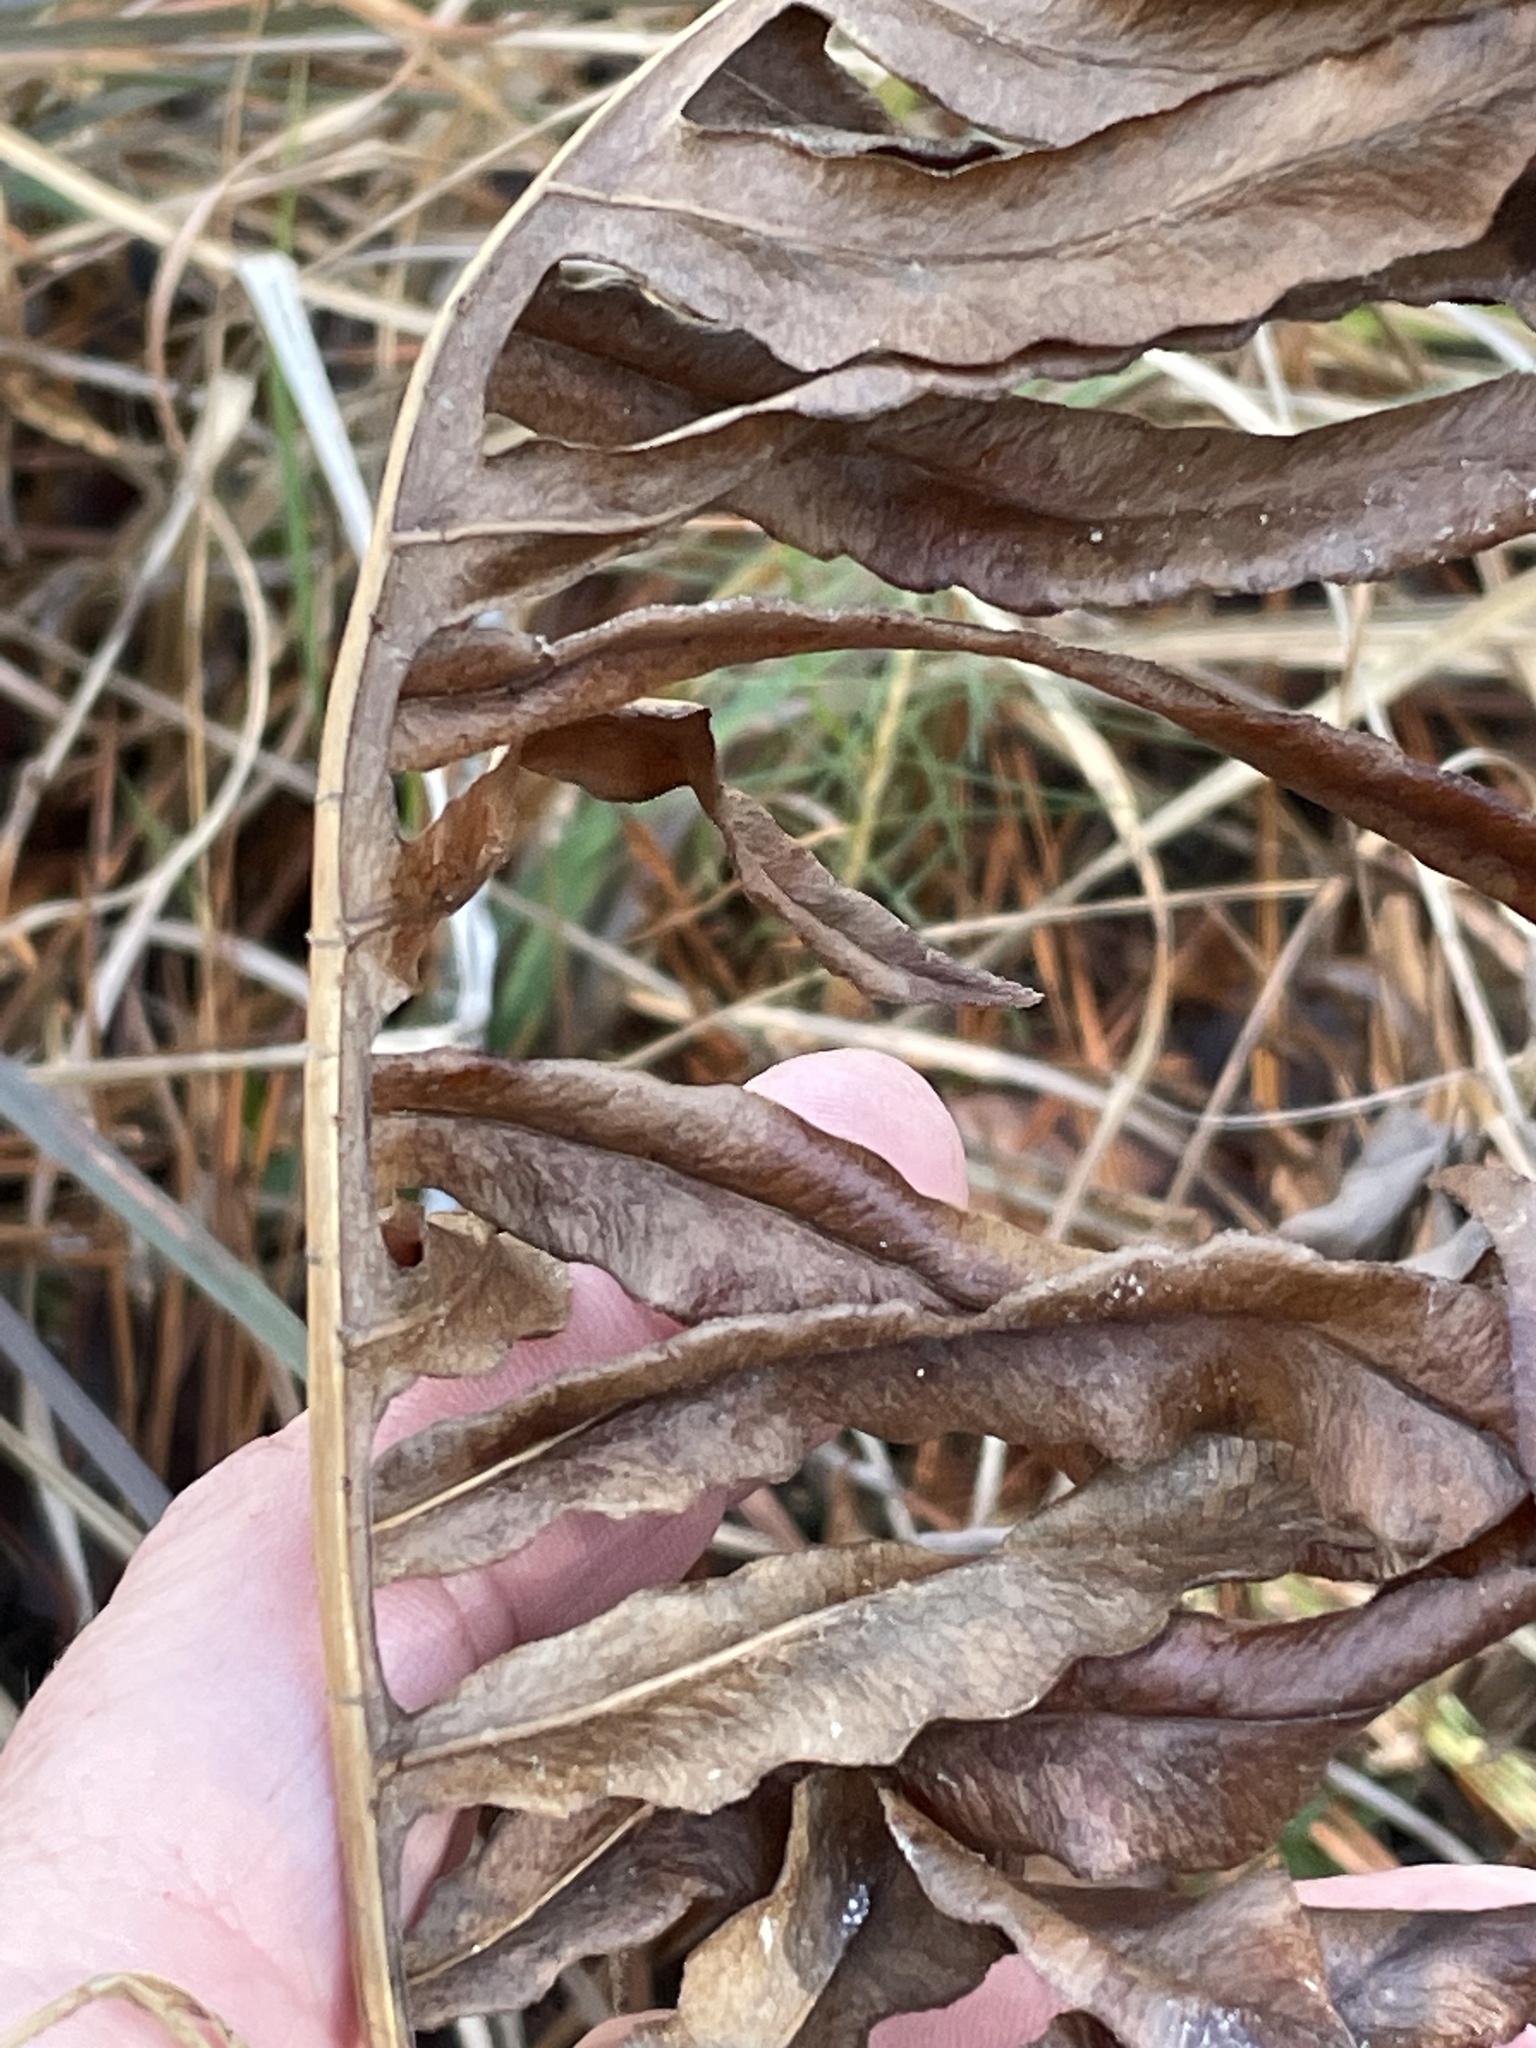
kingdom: Plantae
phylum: Tracheophyta
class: Polypodiopsida
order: Polypodiales
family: Blechnaceae
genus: Lorinseria
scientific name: Lorinseria areolata
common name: Dwarf chain fern
